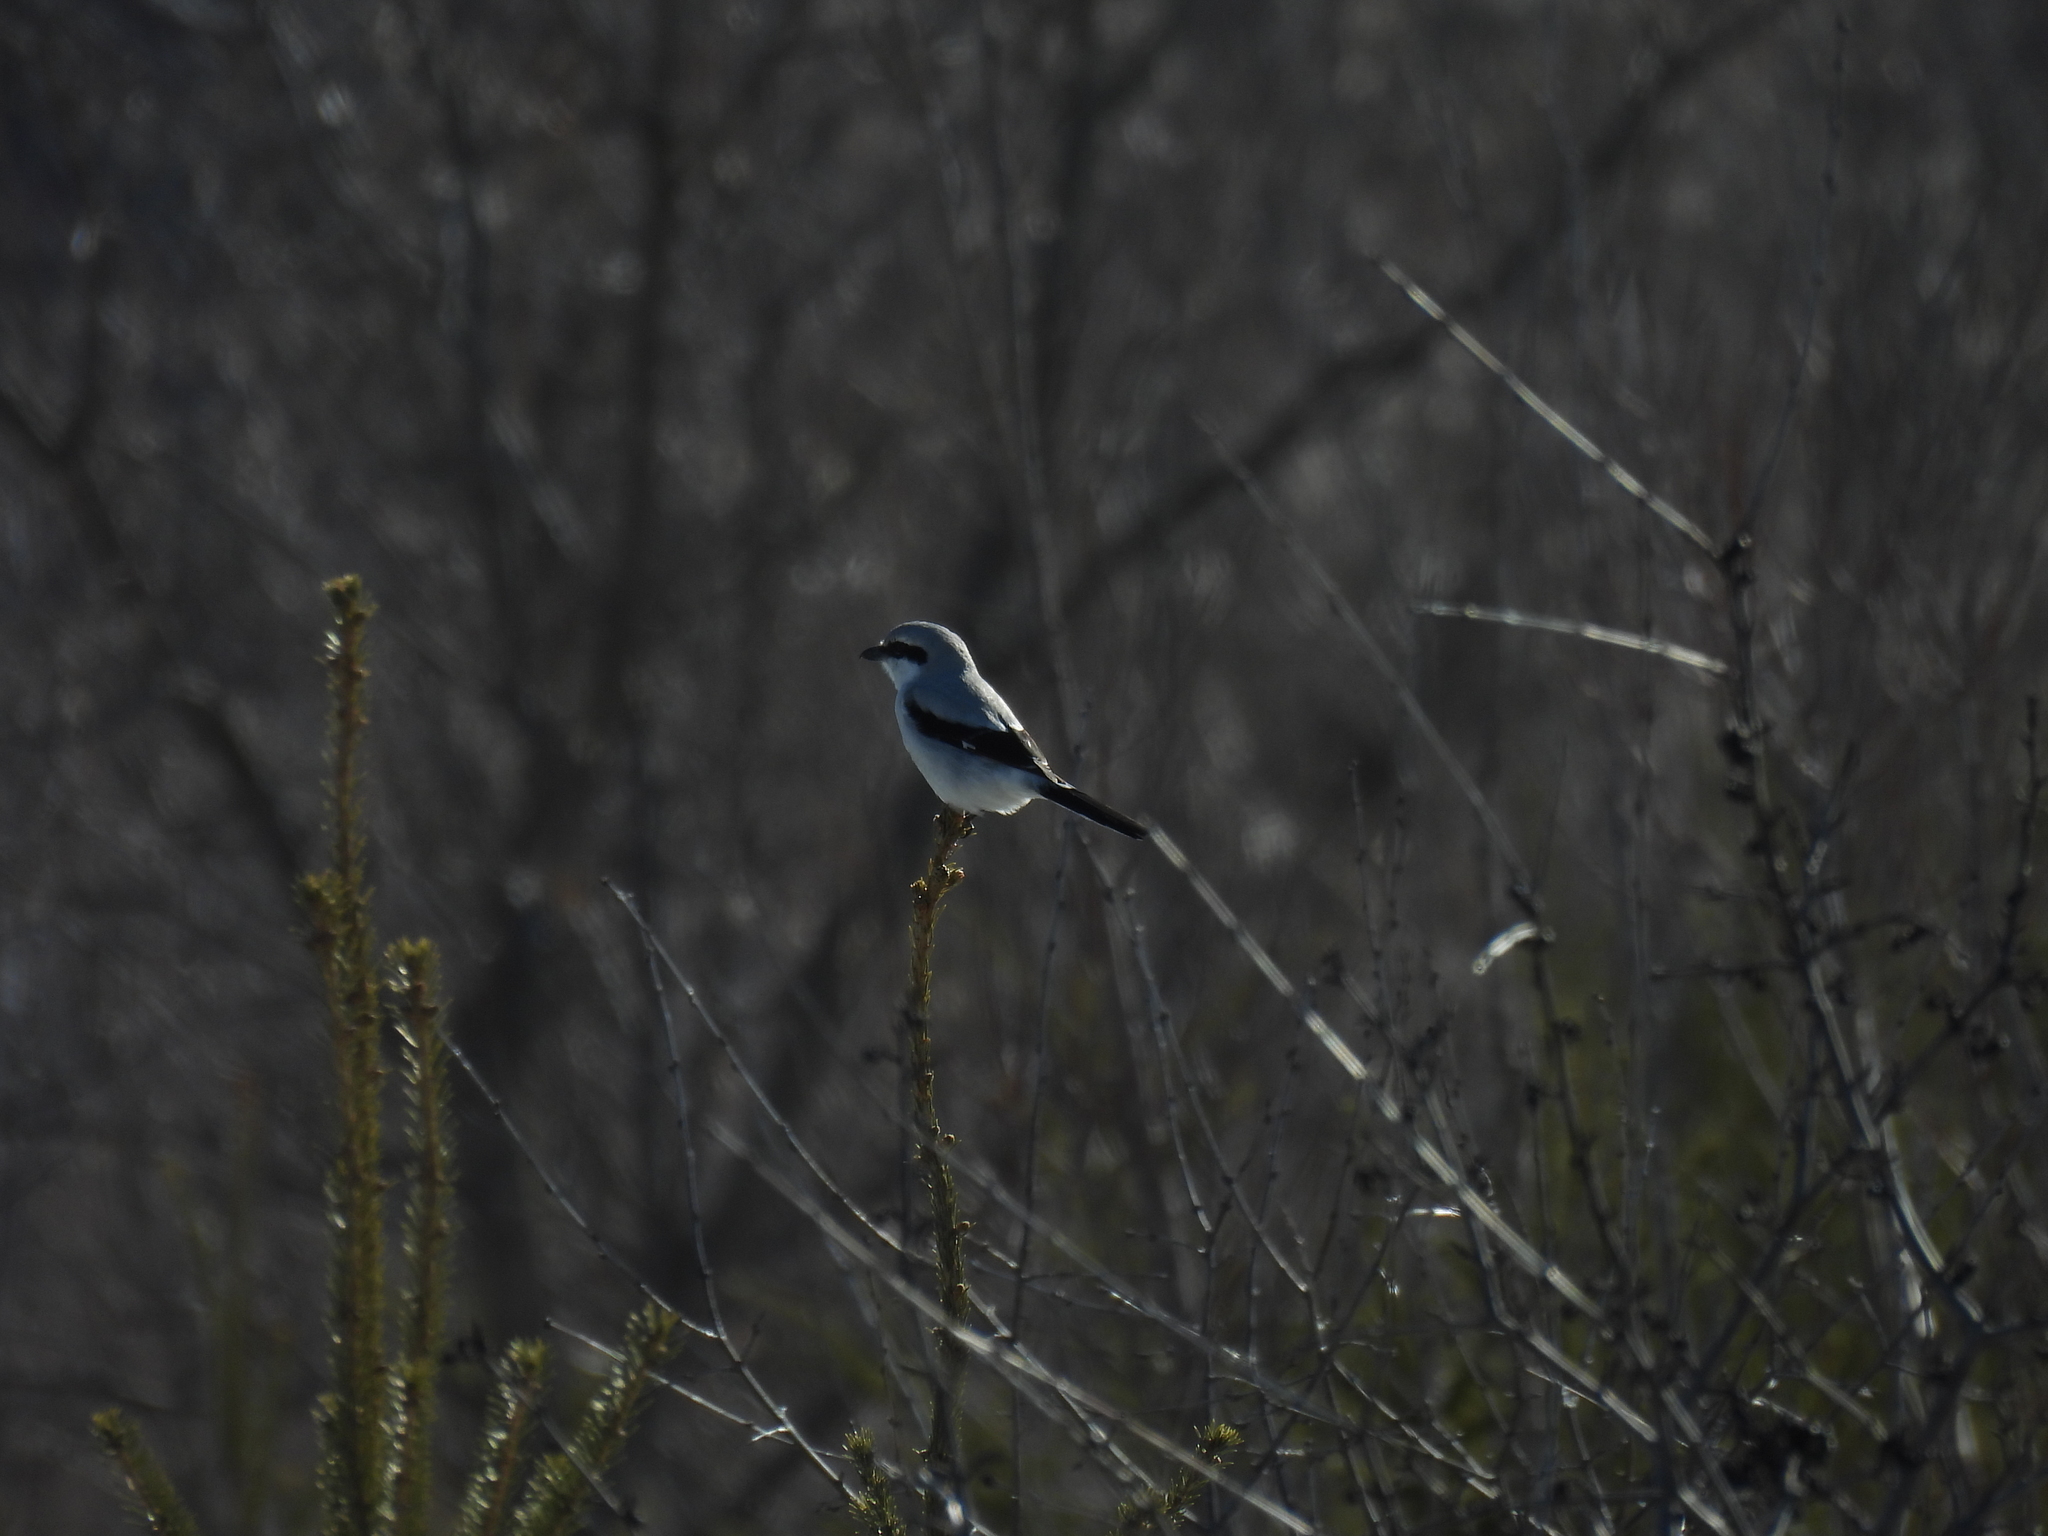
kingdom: Animalia
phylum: Chordata
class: Aves
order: Passeriformes
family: Laniidae
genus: Lanius
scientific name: Lanius borealis
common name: Northern shrike
